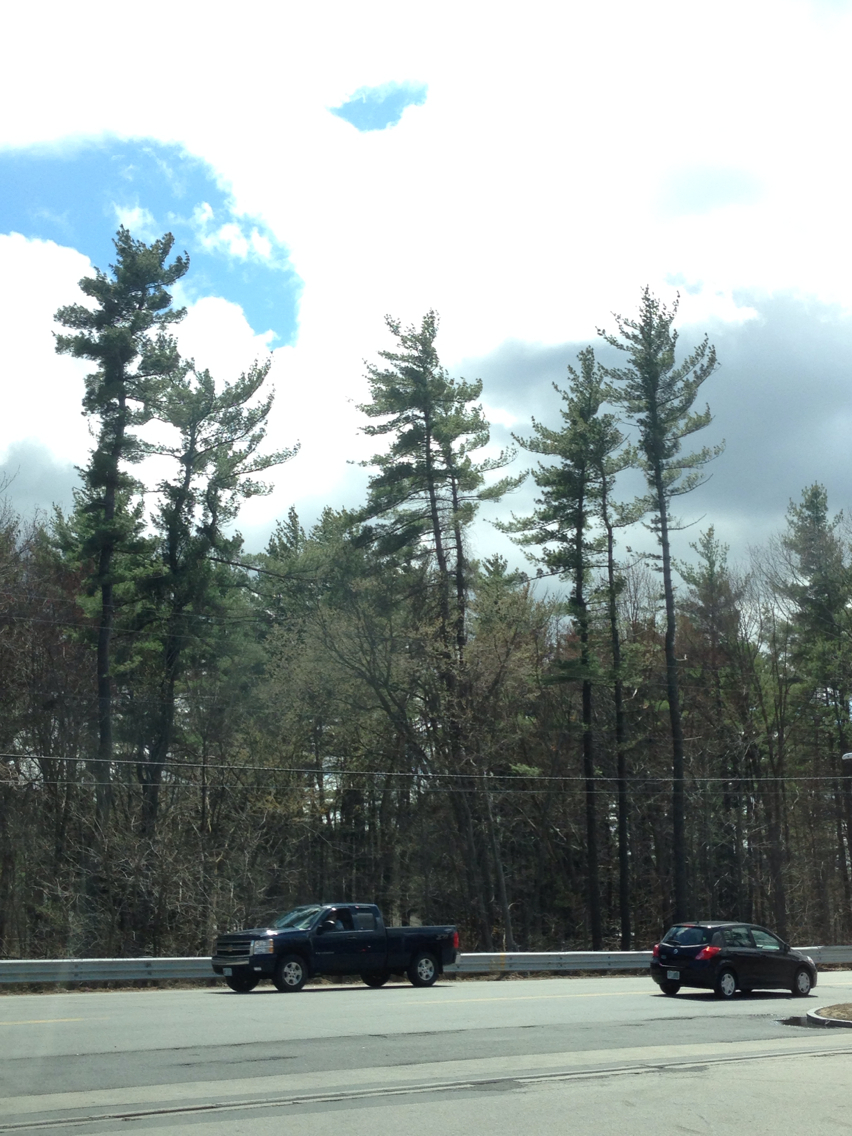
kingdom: Plantae
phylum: Tracheophyta
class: Pinopsida
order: Pinales
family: Pinaceae
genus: Pinus
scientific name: Pinus strobus
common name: Weymouth pine
